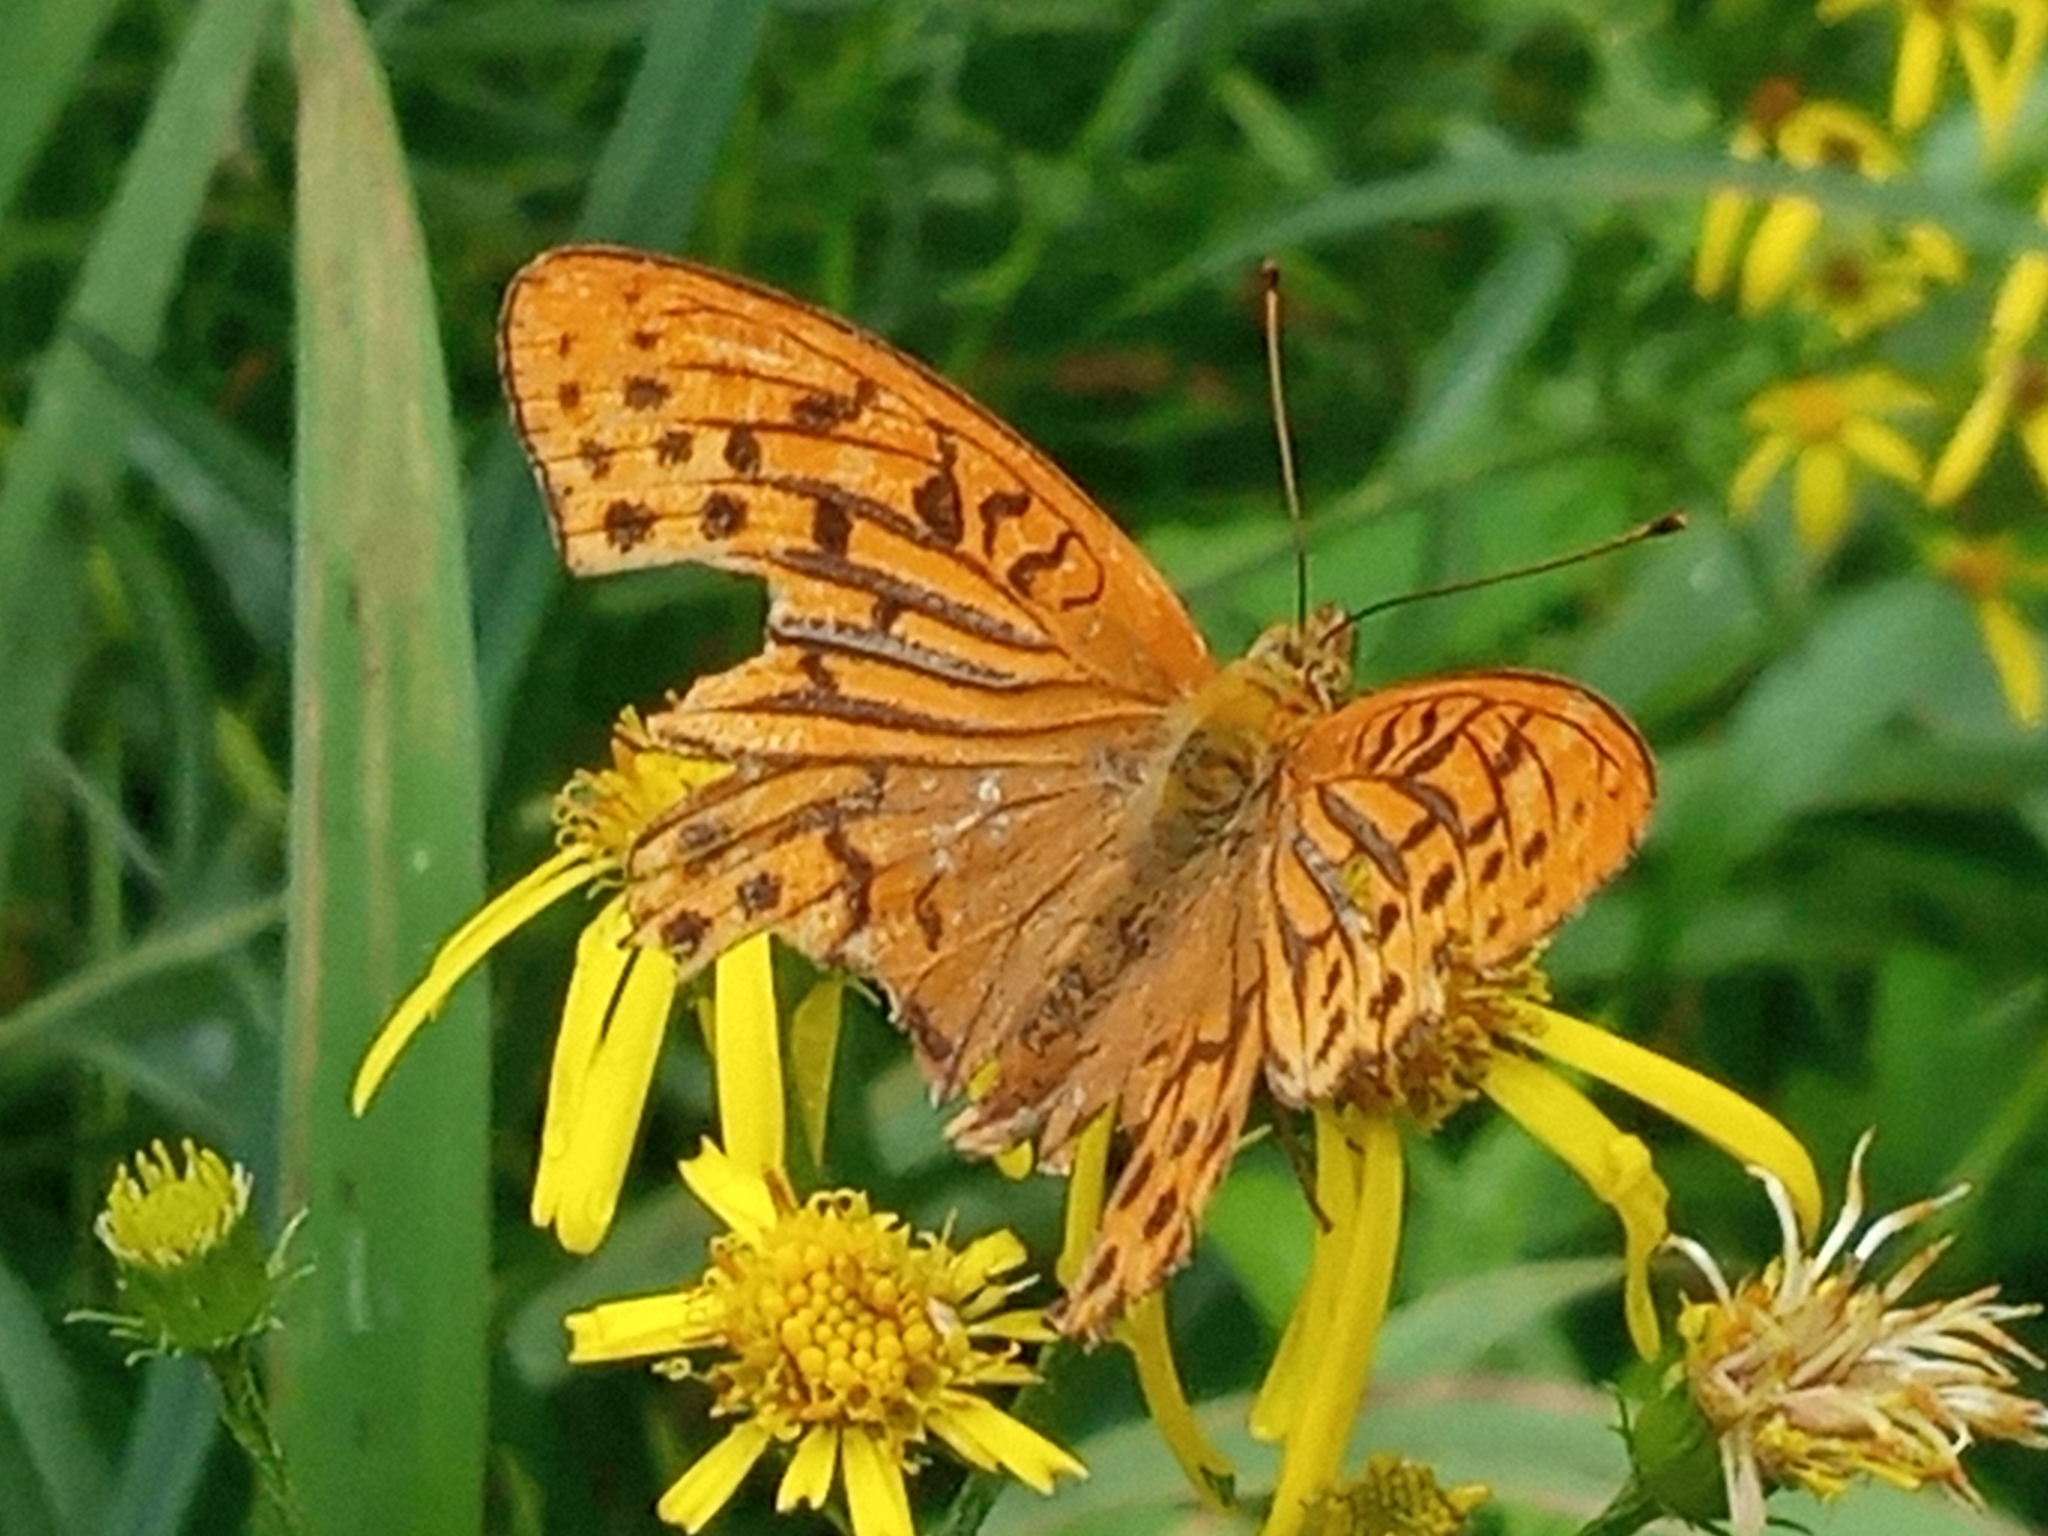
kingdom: Animalia
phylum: Arthropoda
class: Insecta
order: Lepidoptera
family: Nymphalidae
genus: Argynnis
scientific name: Argynnis paphia
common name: Silver-washed fritillary
